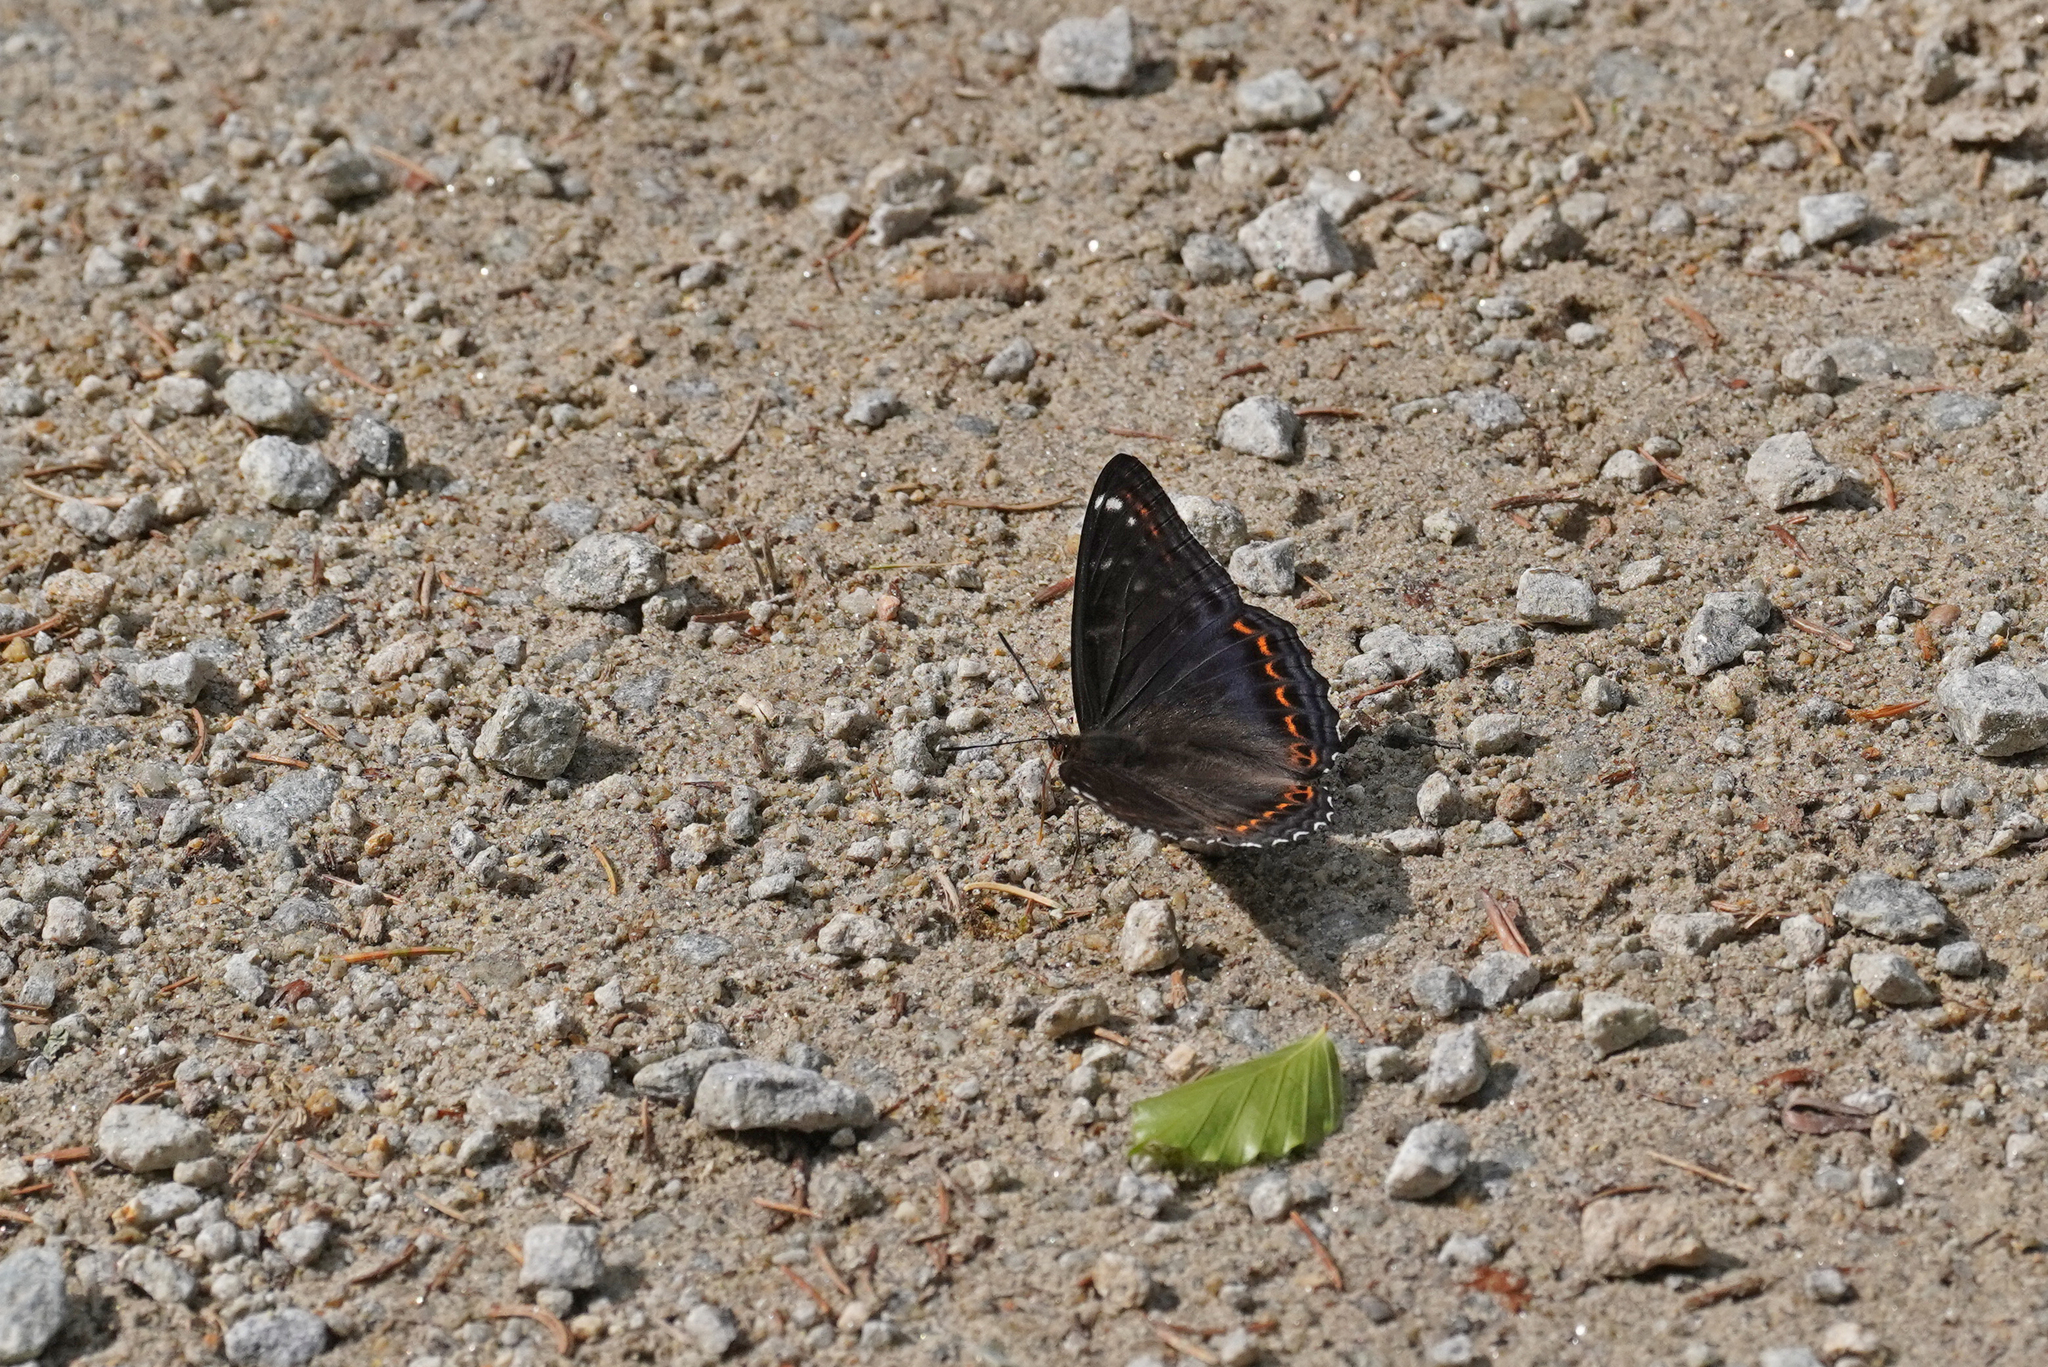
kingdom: Animalia
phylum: Arthropoda
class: Insecta
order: Lepidoptera
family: Nymphalidae
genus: Limenitis
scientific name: Limenitis populi
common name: Poplar admiral
